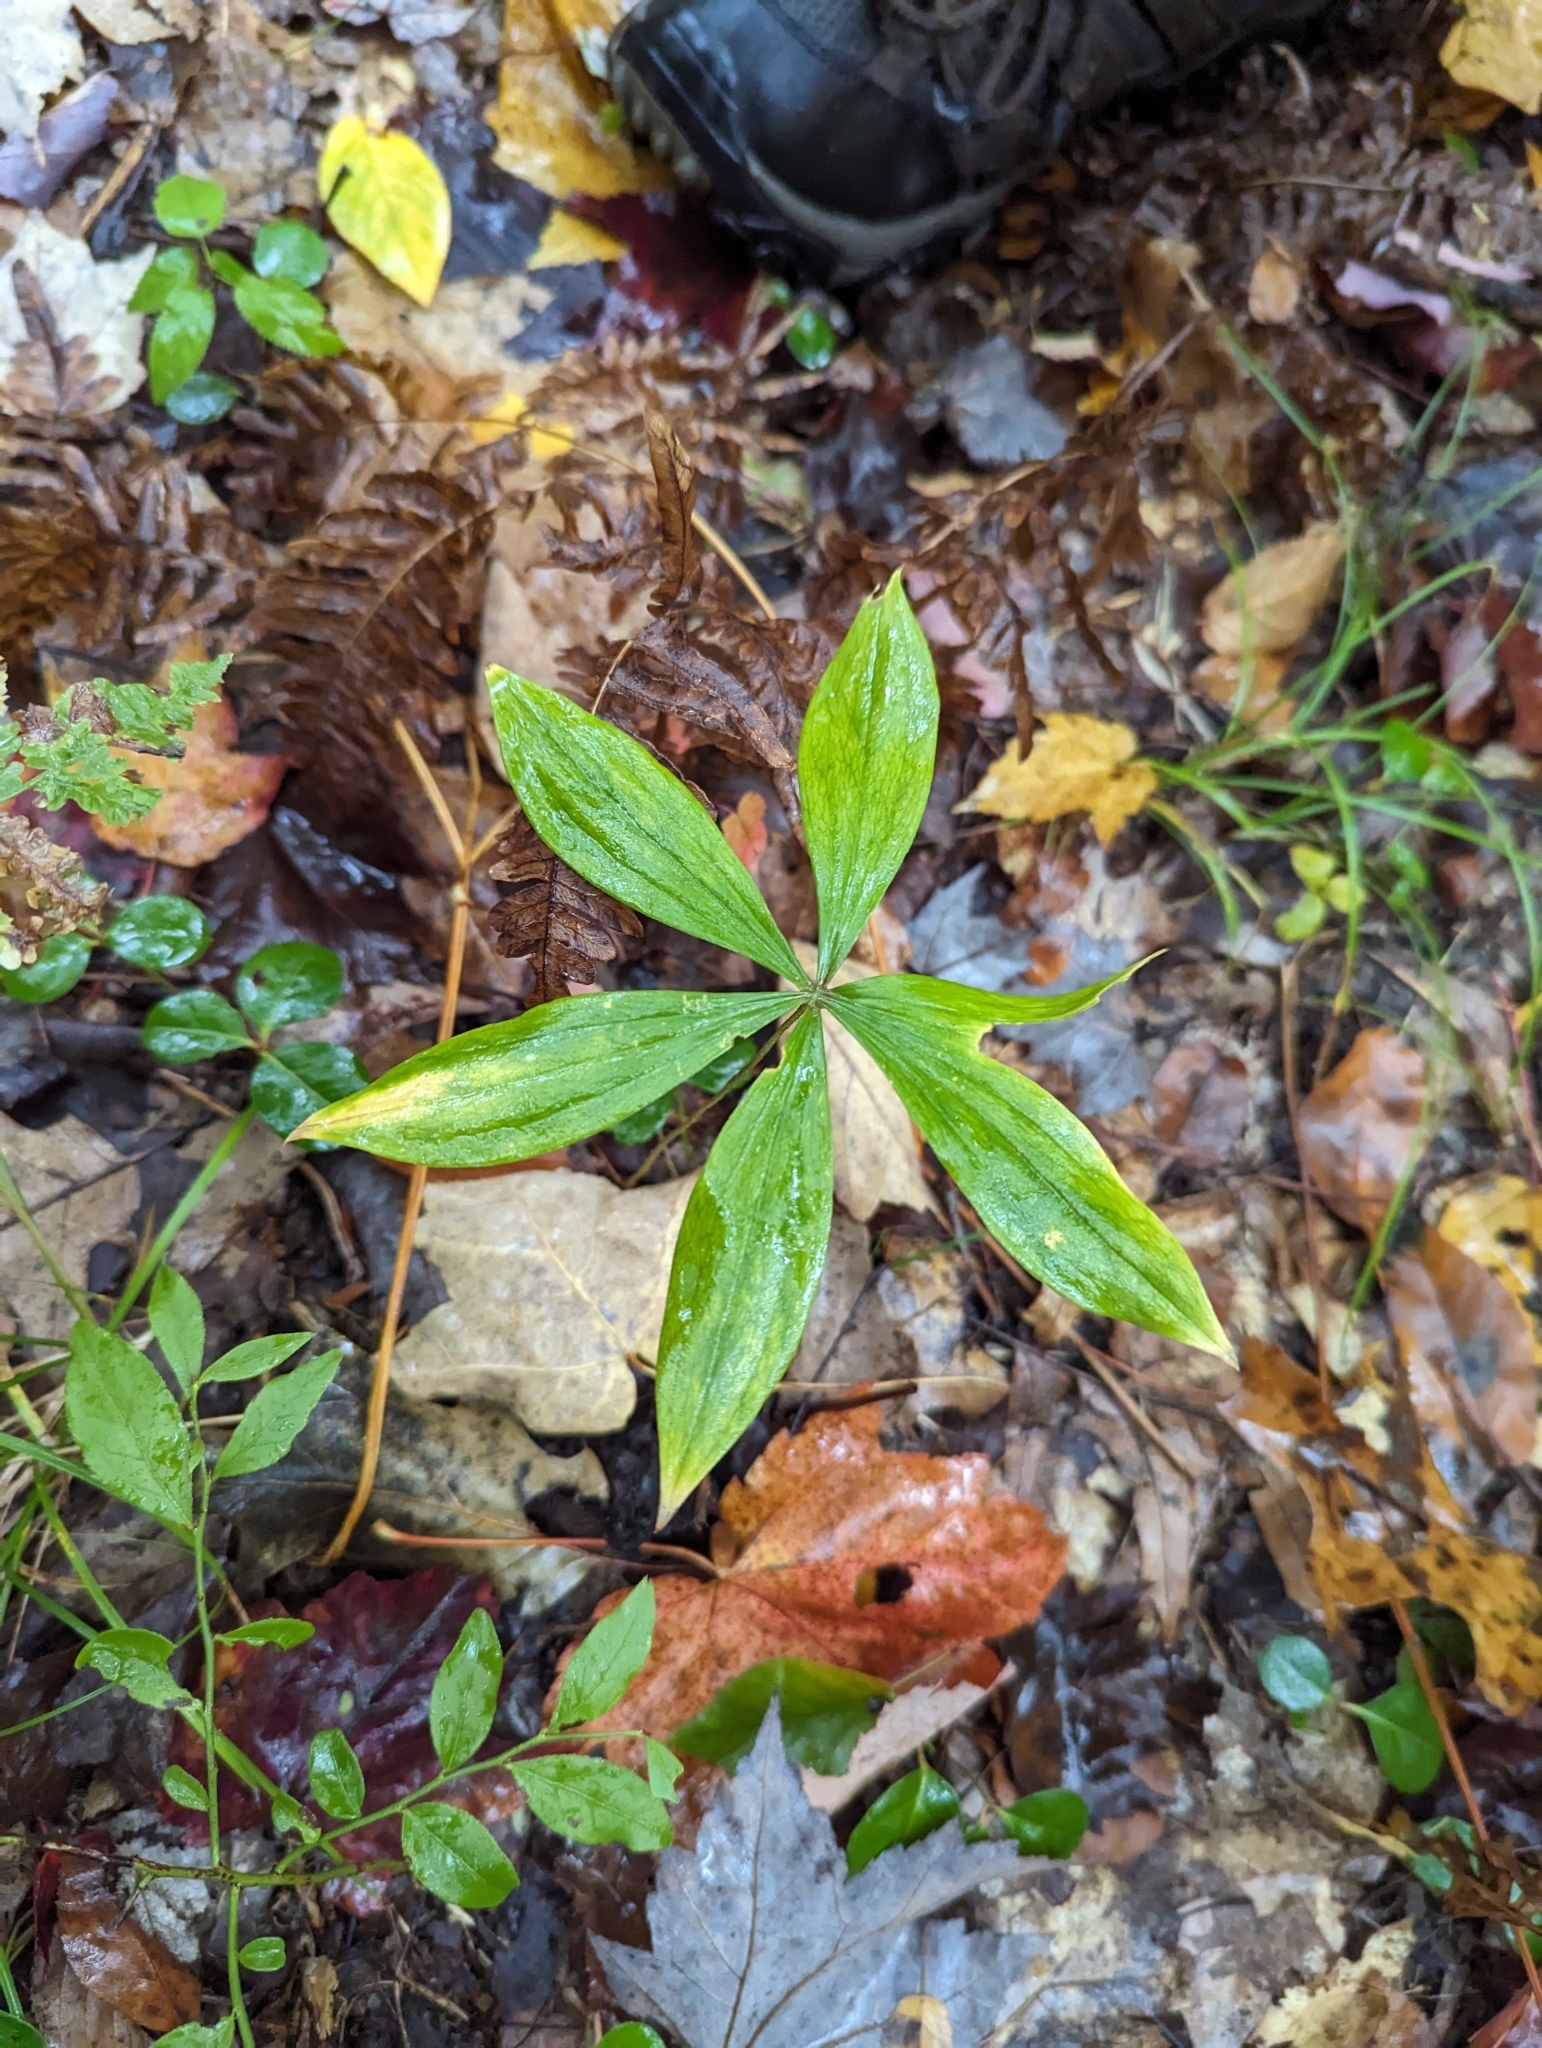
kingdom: Plantae
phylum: Tracheophyta
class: Liliopsida
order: Liliales
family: Liliaceae
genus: Medeola
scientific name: Medeola virginiana
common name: Indian cucumber-root
